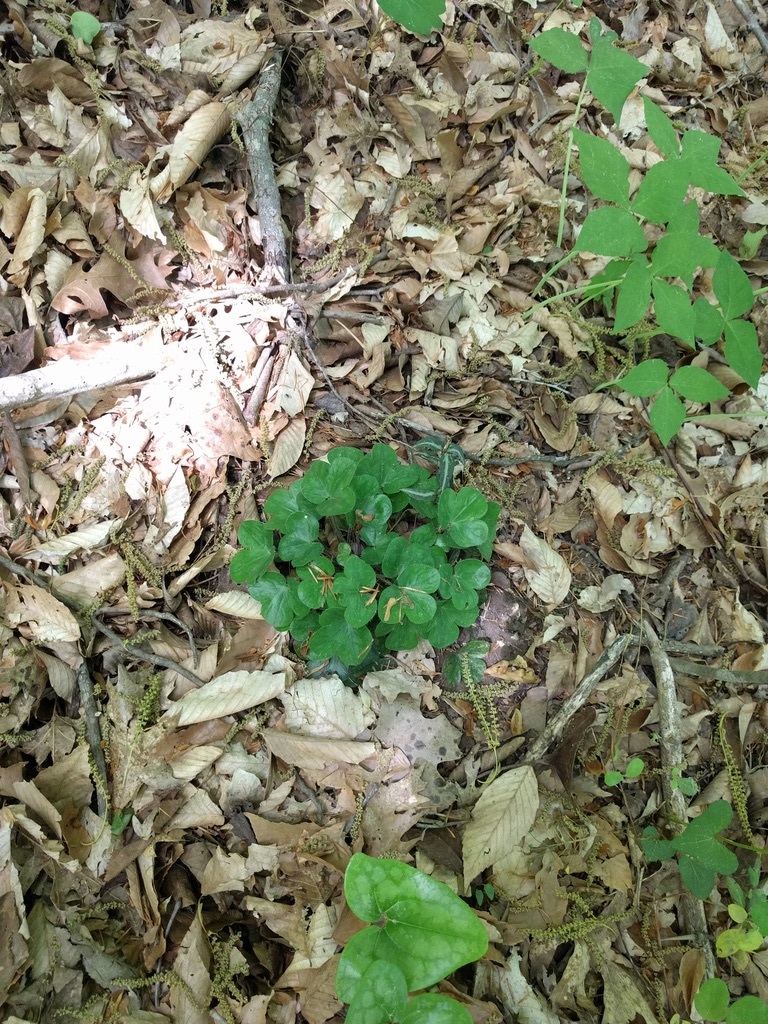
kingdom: Plantae
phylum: Tracheophyta
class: Magnoliopsida
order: Ranunculales
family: Ranunculaceae
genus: Hepatica
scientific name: Hepatica americana
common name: American hepatica
